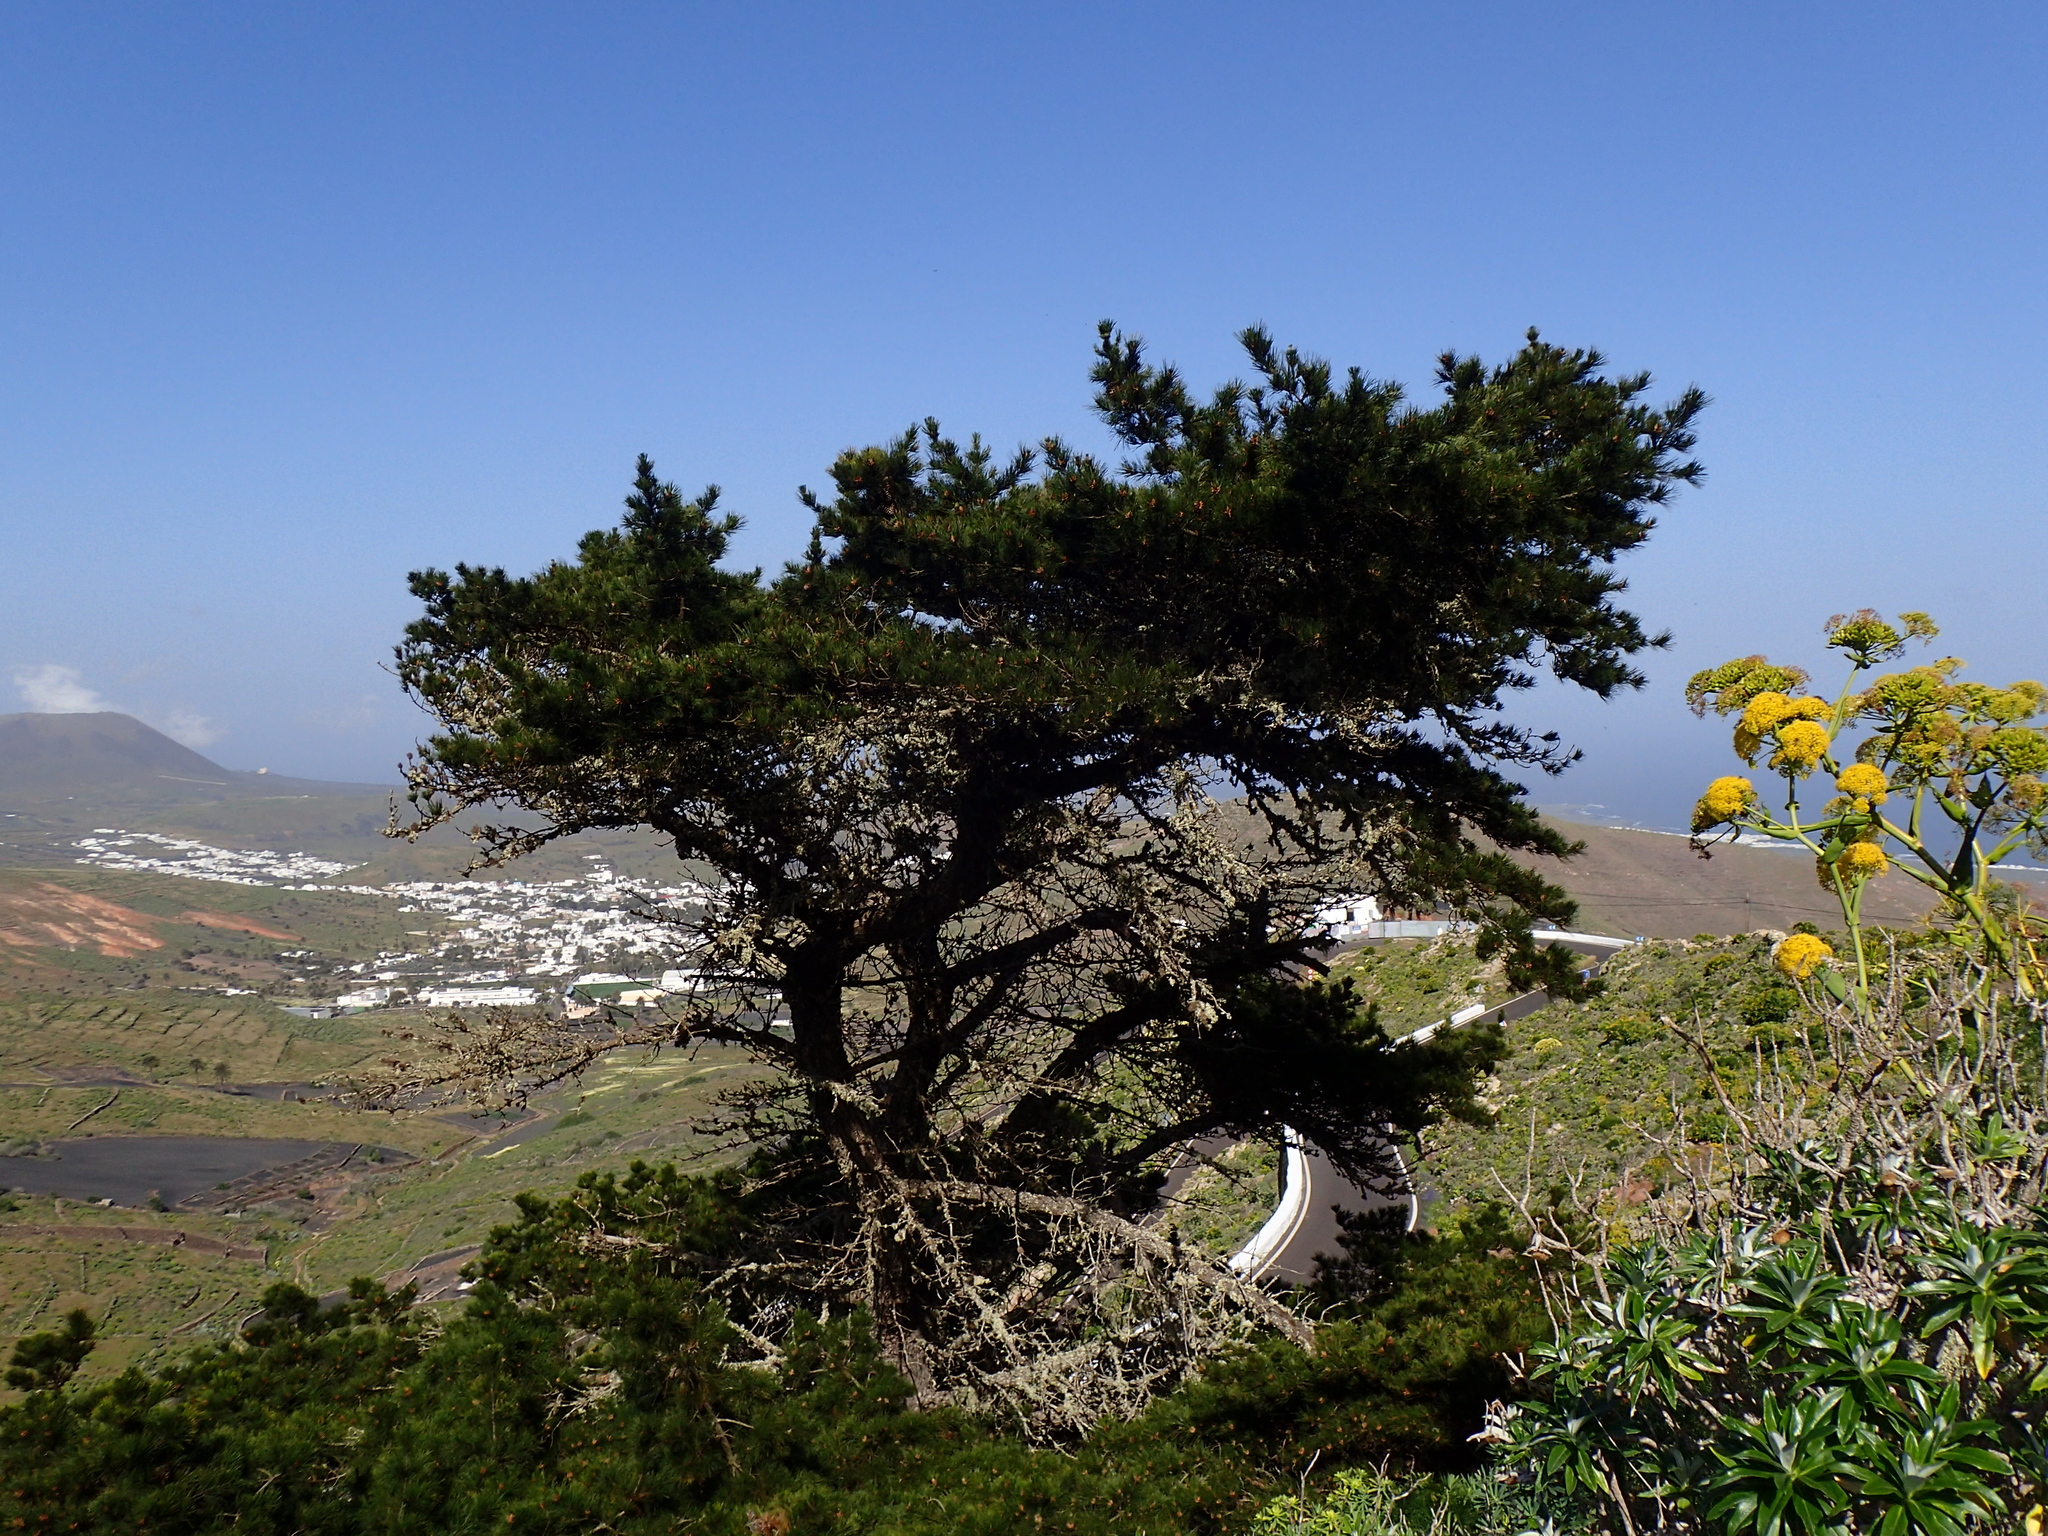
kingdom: Plantae
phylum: Tracheophyta
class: Pinopsida
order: Pinales
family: Pinaceae
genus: Pinus
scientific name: Pinus halepensis
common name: Aleppo pine
